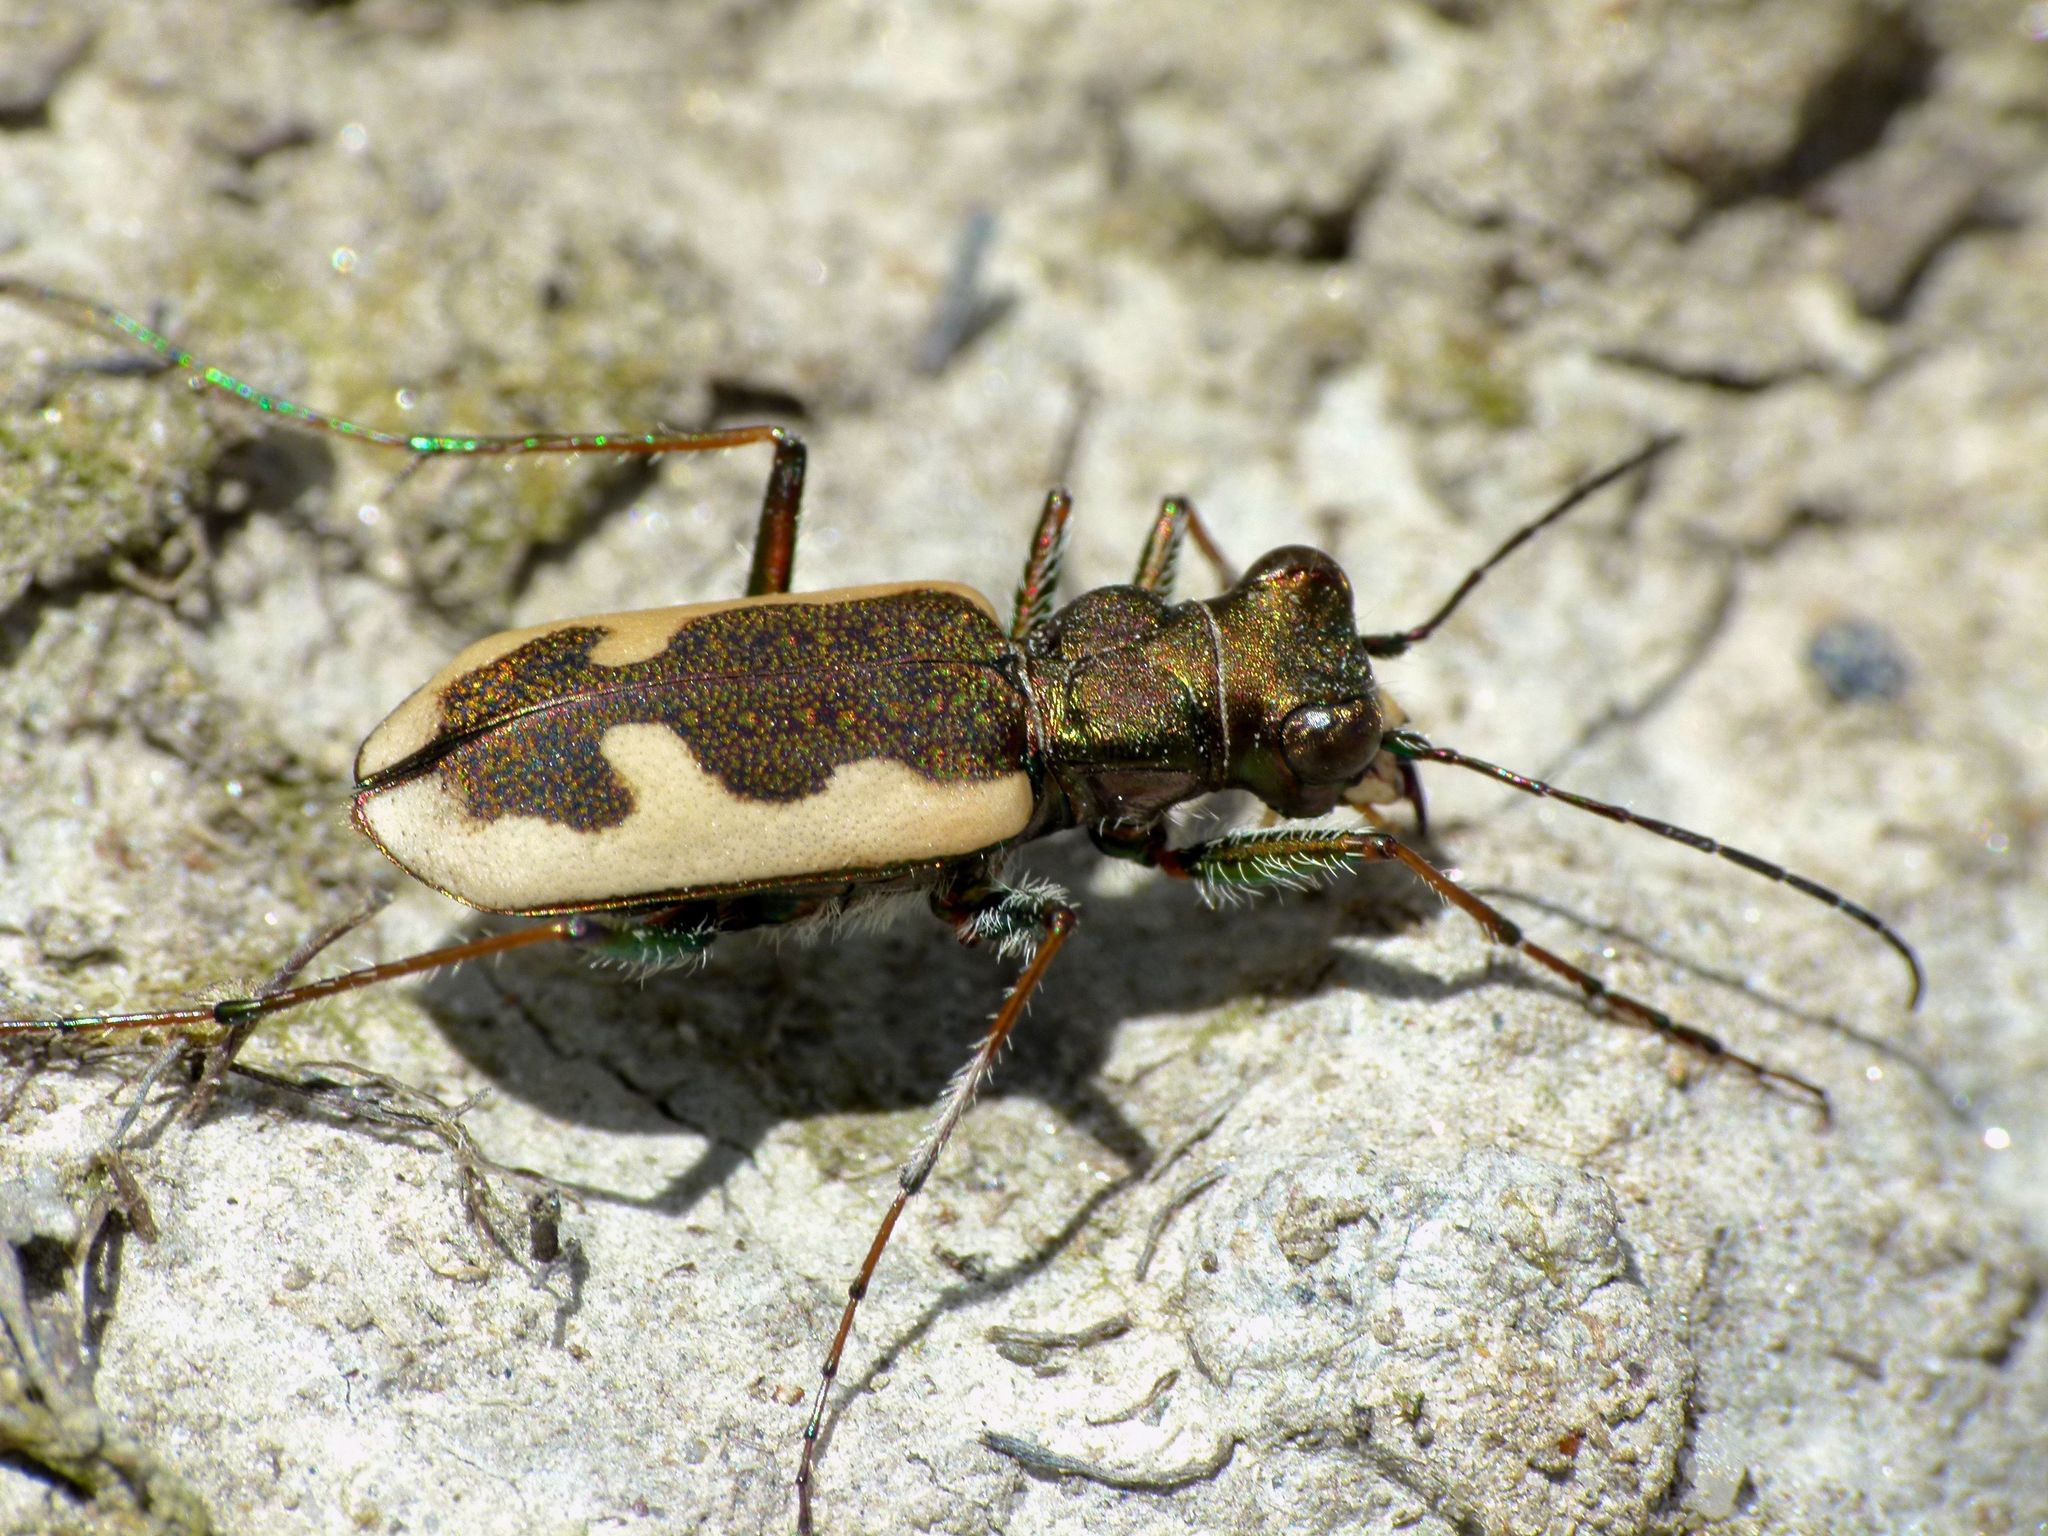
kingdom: Animalia
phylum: Arthropoda
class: Insecta
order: Coleoptera
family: Carabidae
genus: Neocicindela
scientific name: Neocicindela latecincta
